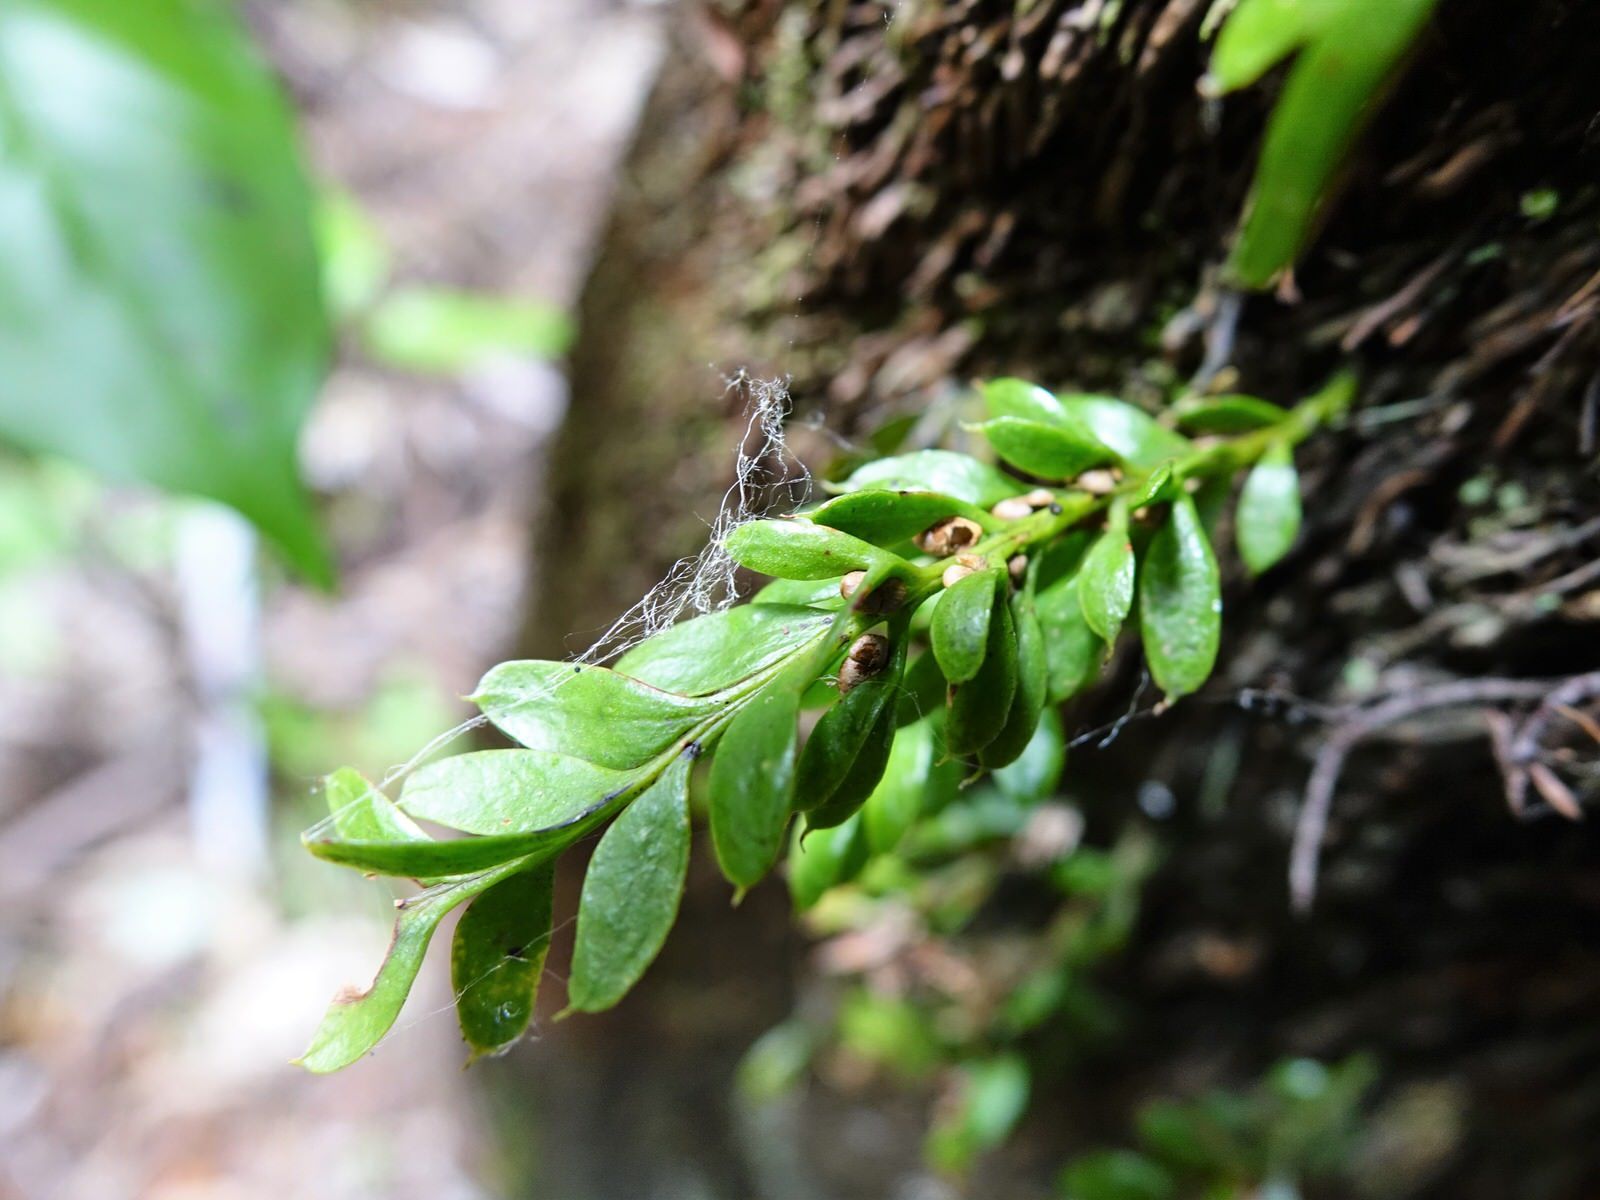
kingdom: Plantae
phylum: Tracheophyta
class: Polypodiopsida
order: Psilotales
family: Psilotaceae
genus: Tmesipteris
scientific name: Tmesipteris lanceolata
